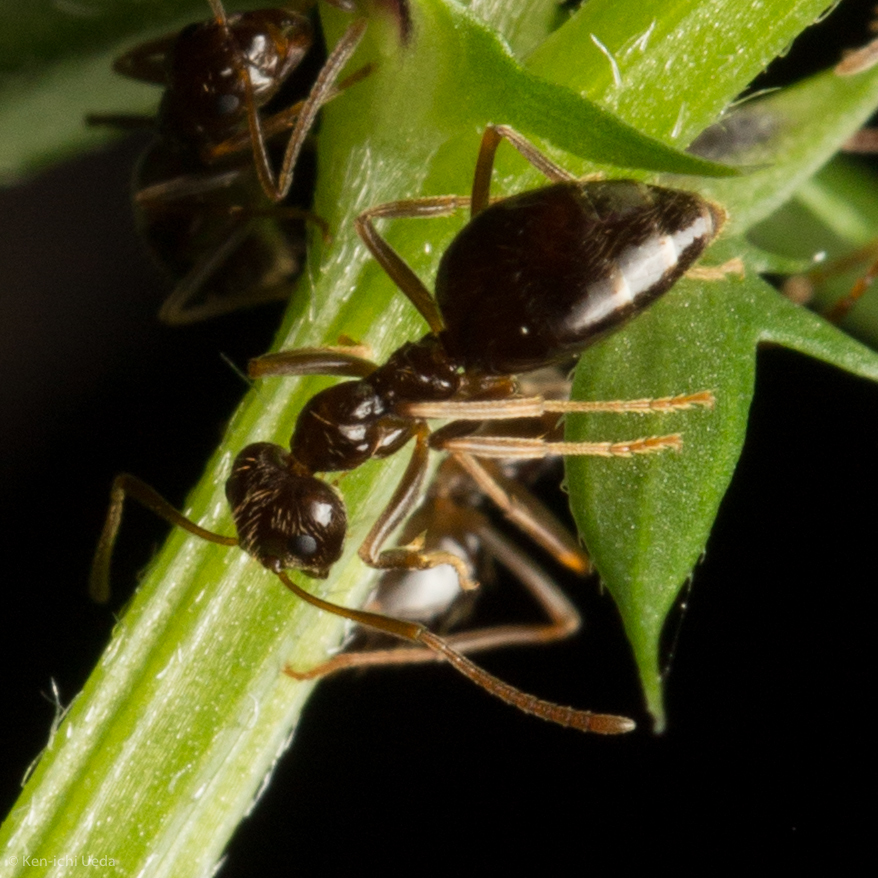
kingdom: Animalia
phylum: Arthropoda
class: Insecta
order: Hymenoptera
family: Formicidae
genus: Prenolepis
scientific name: Prenolepis imparis
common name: Small honey ant
